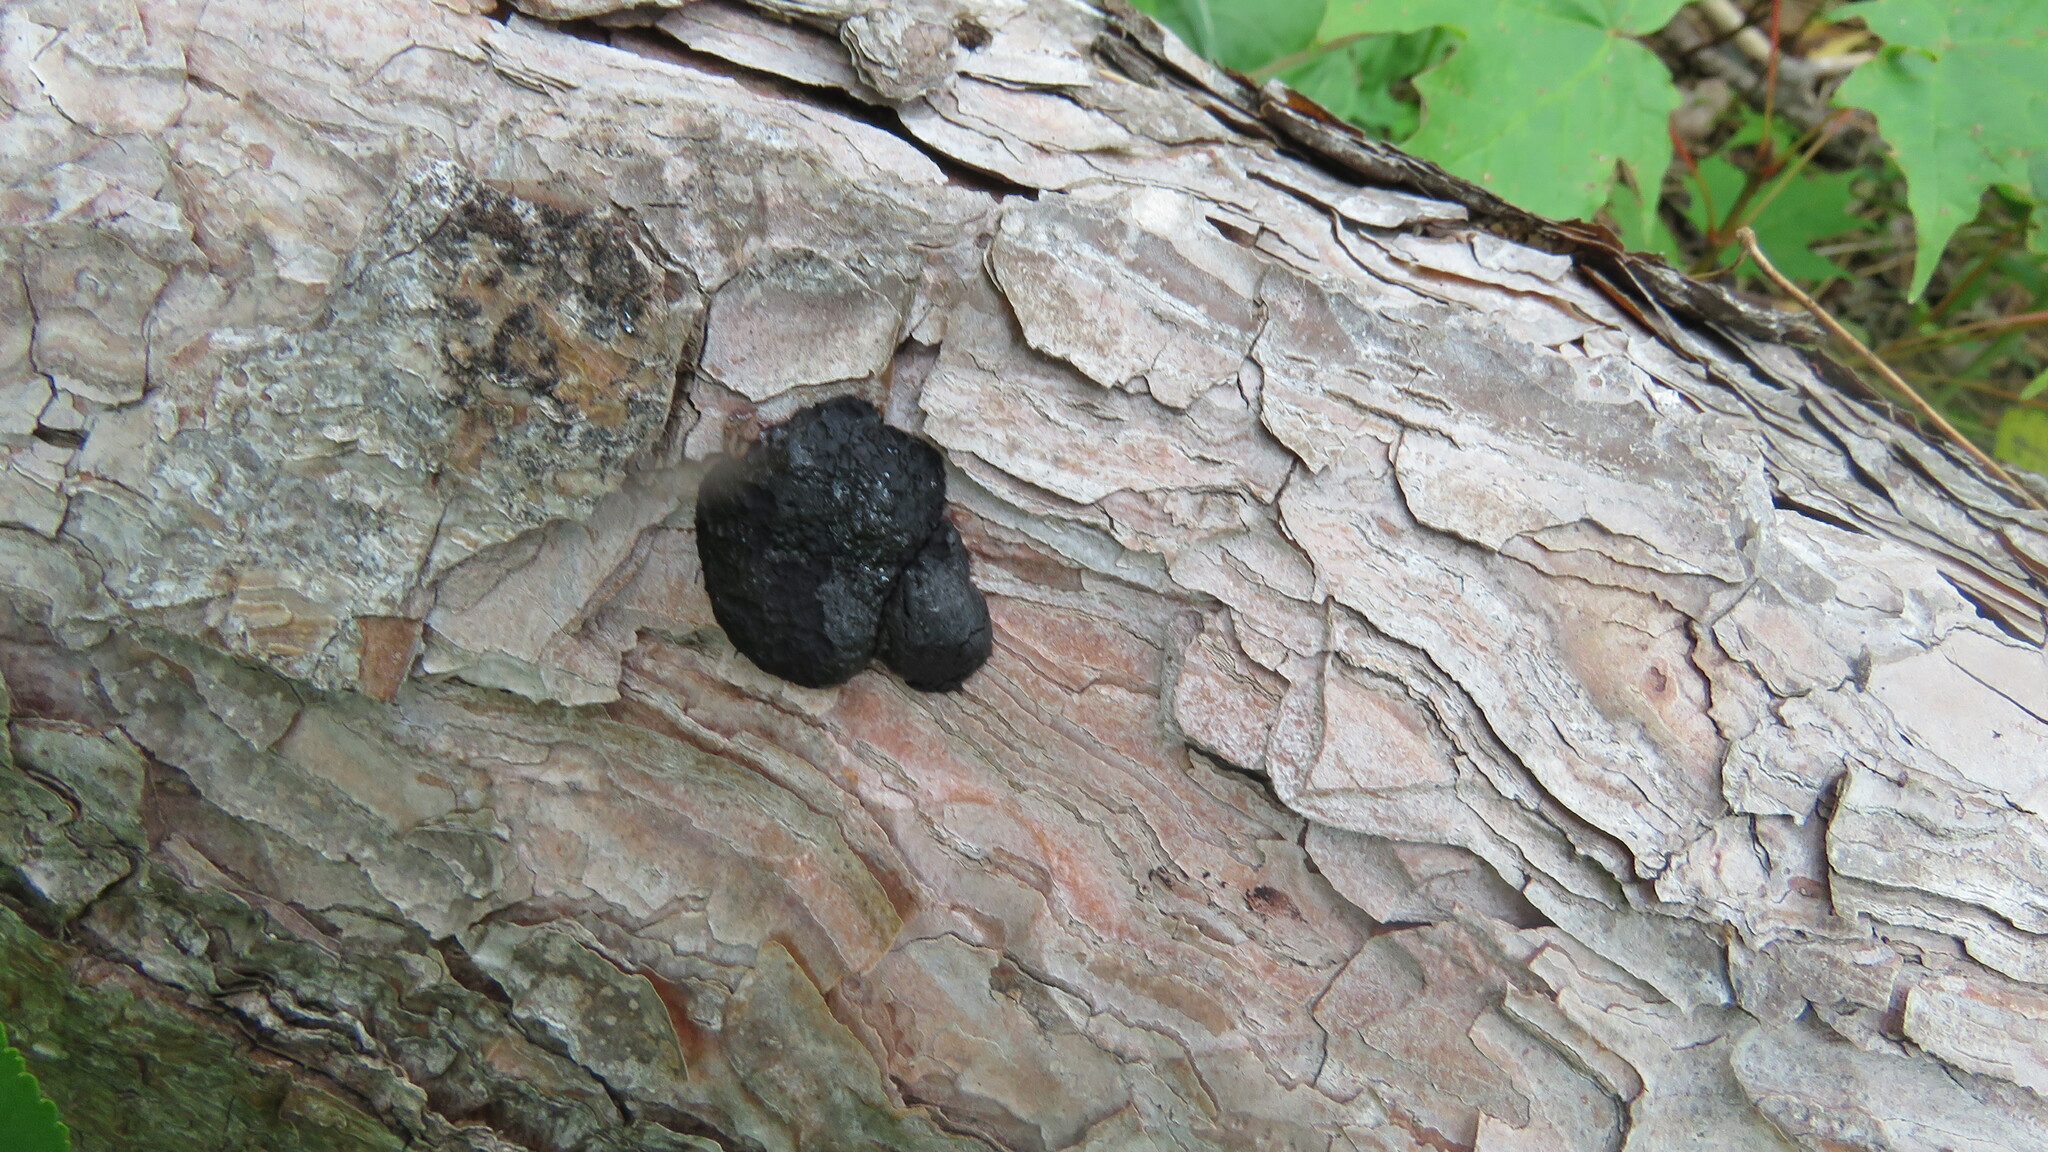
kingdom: Fungi
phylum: Ascomycota
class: Sordariomycetes
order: Xylariales
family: Hypoxylaceae
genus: Daldinia
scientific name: Daldinia childiae
